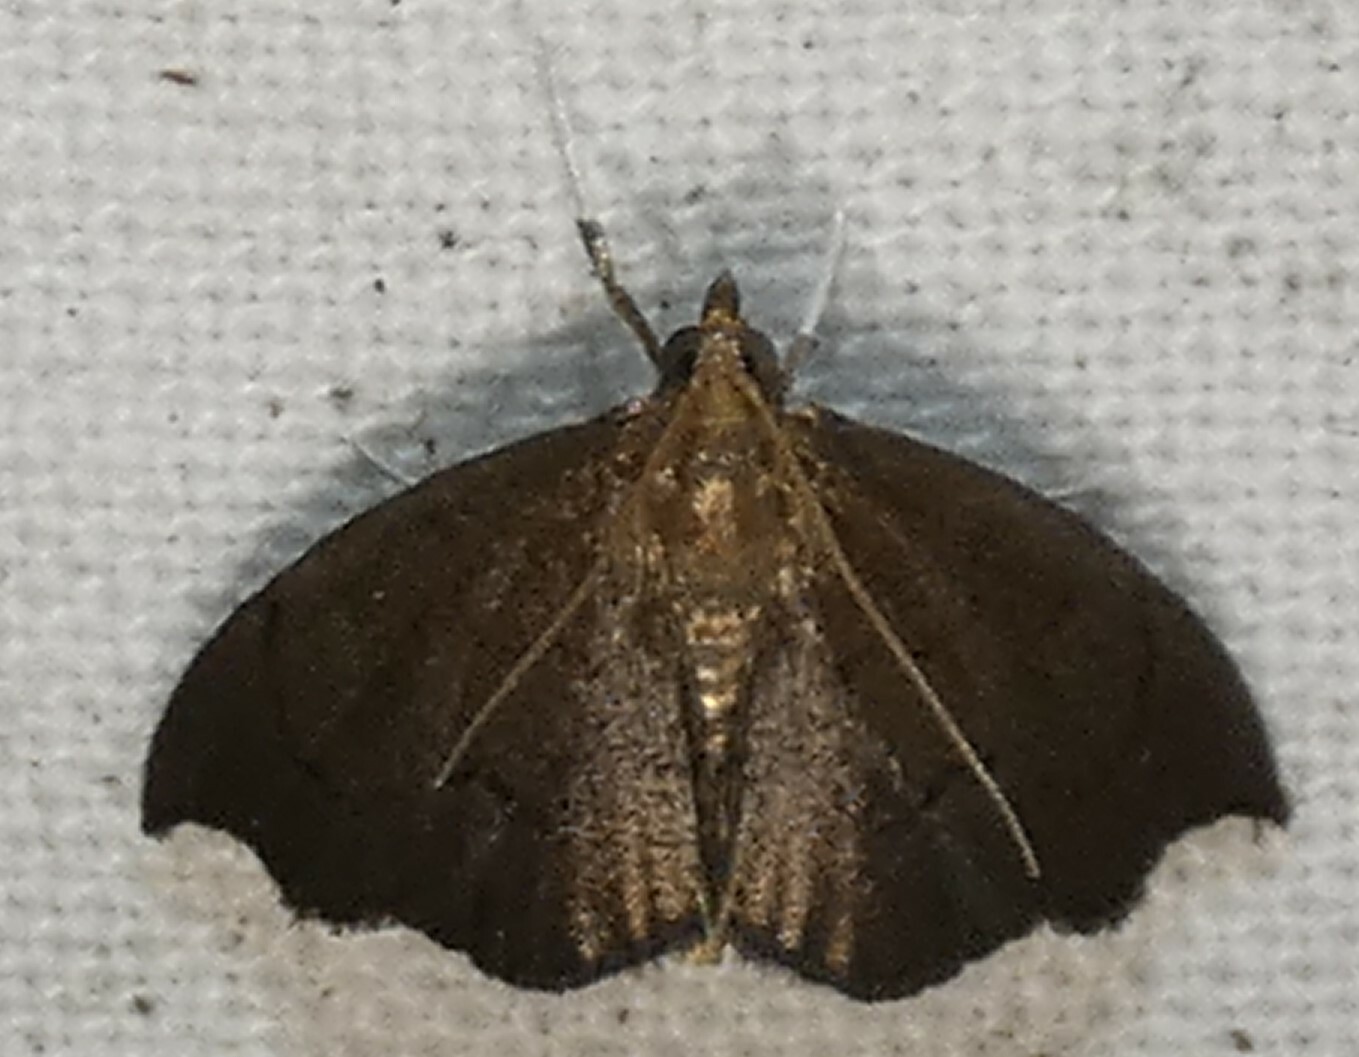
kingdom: Animalia
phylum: Arthropoda
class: Insecta
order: Lepidoptera
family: Crambidae
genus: Perispasta
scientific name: Perispasta caeculalis
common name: Titian peale's moth
